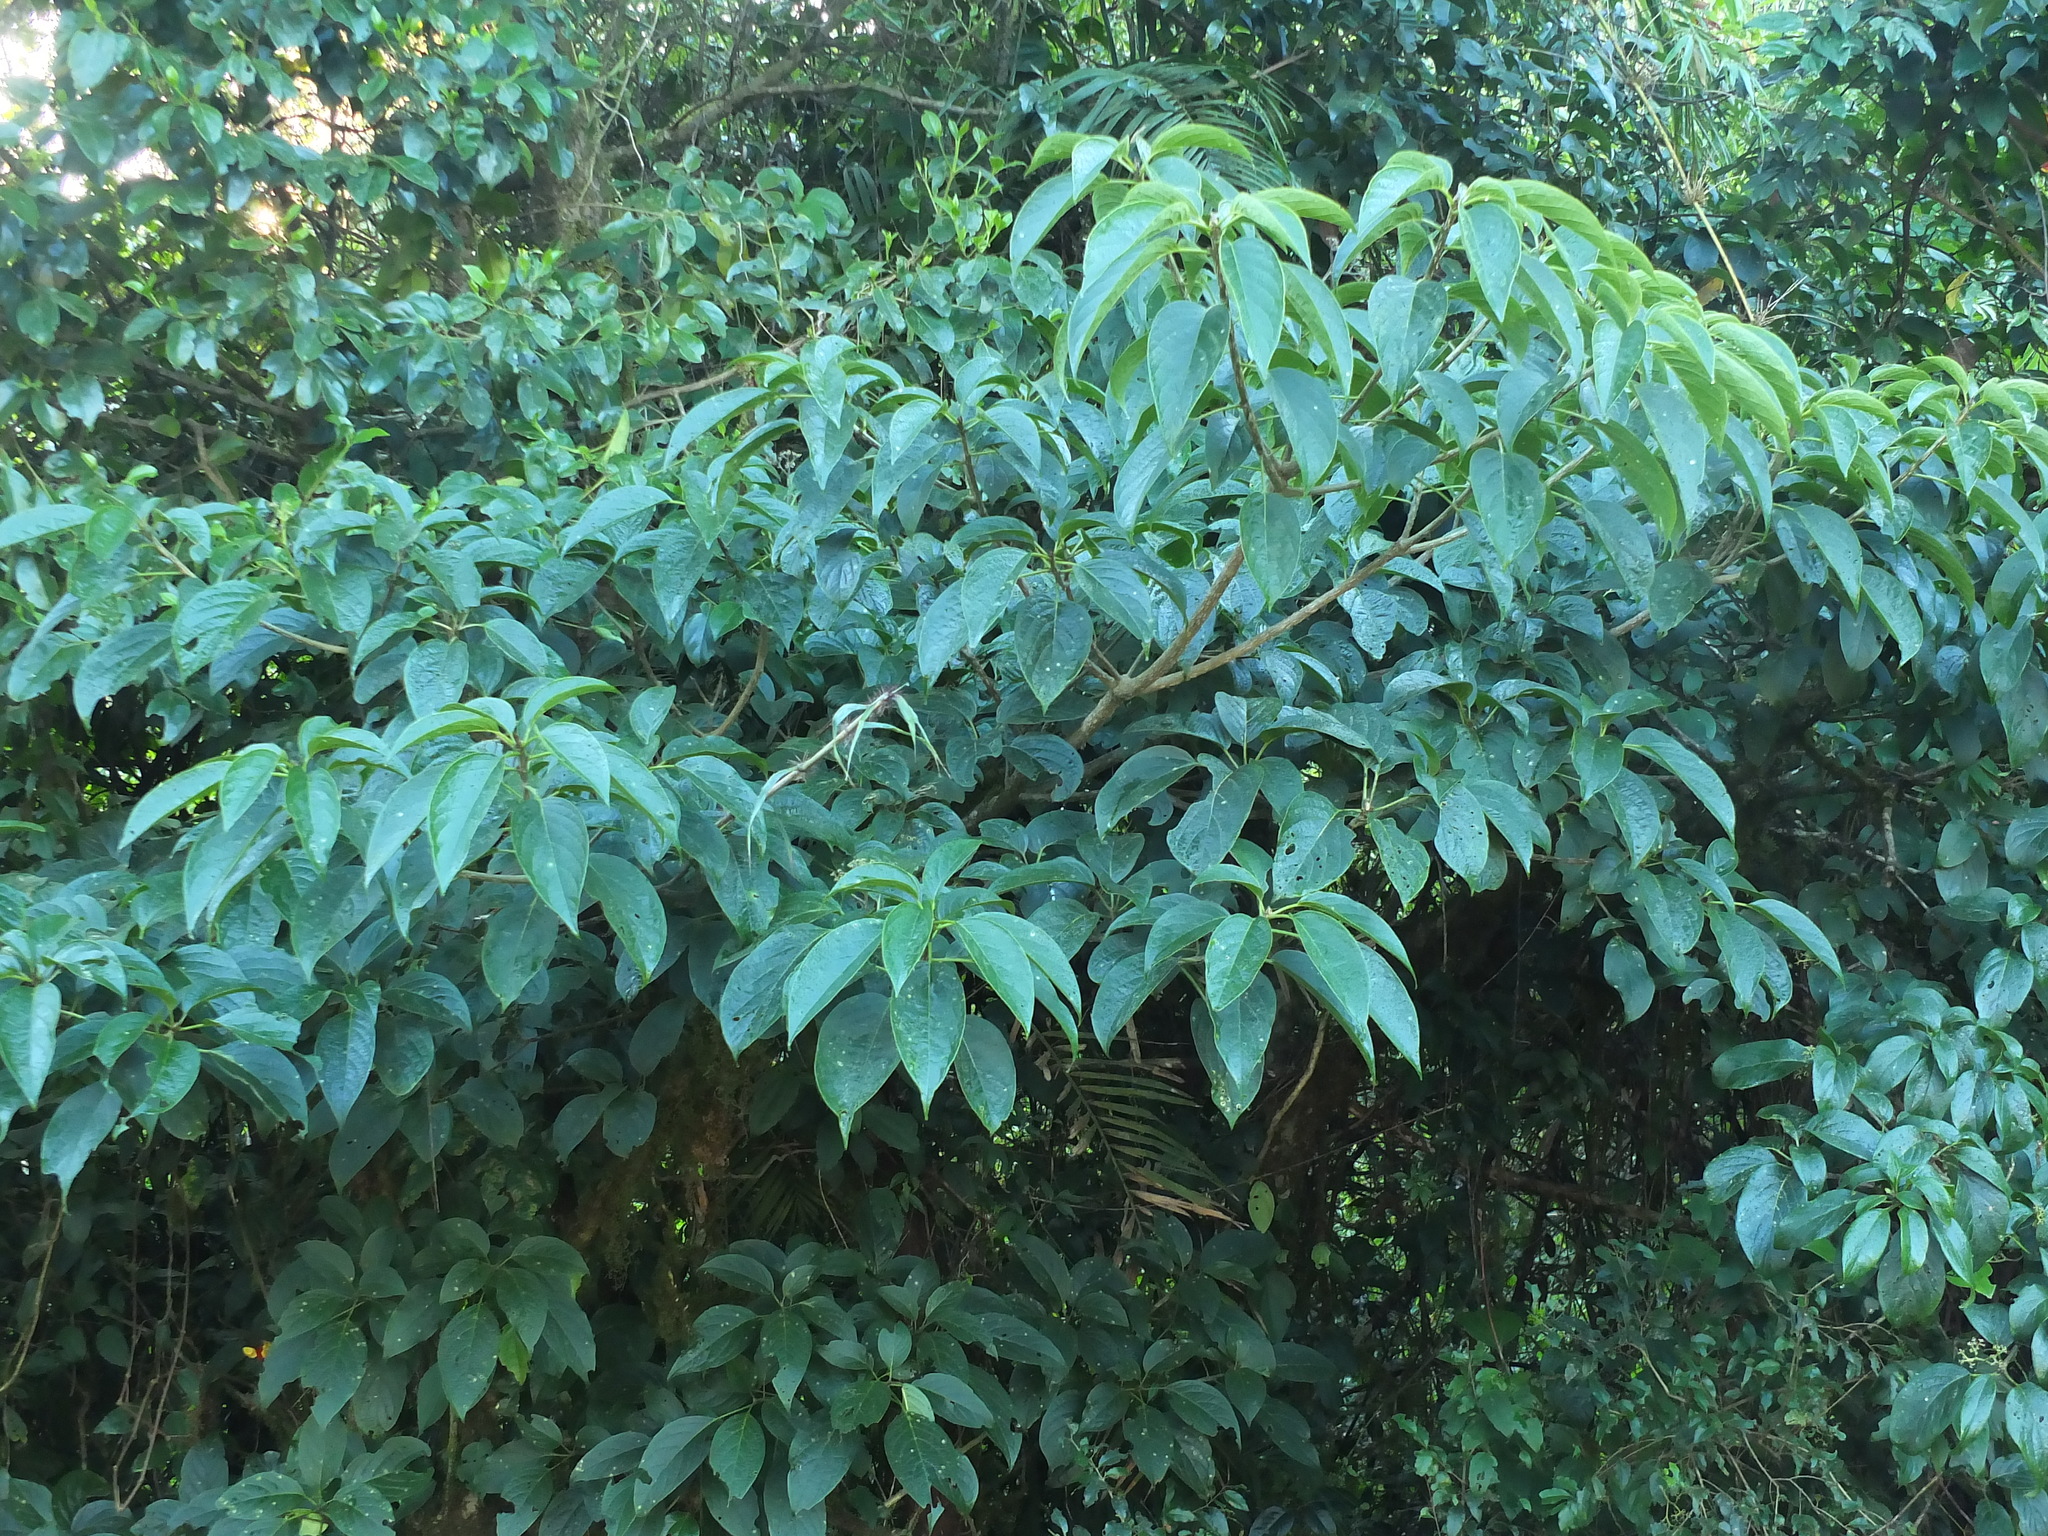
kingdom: Plantae
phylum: Tracheophyta
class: Magnoliopsida
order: Icacinales
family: Icacinaceae
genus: Nothapodytes
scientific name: Nothapodytes nimmoniana
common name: Nothapodytes
